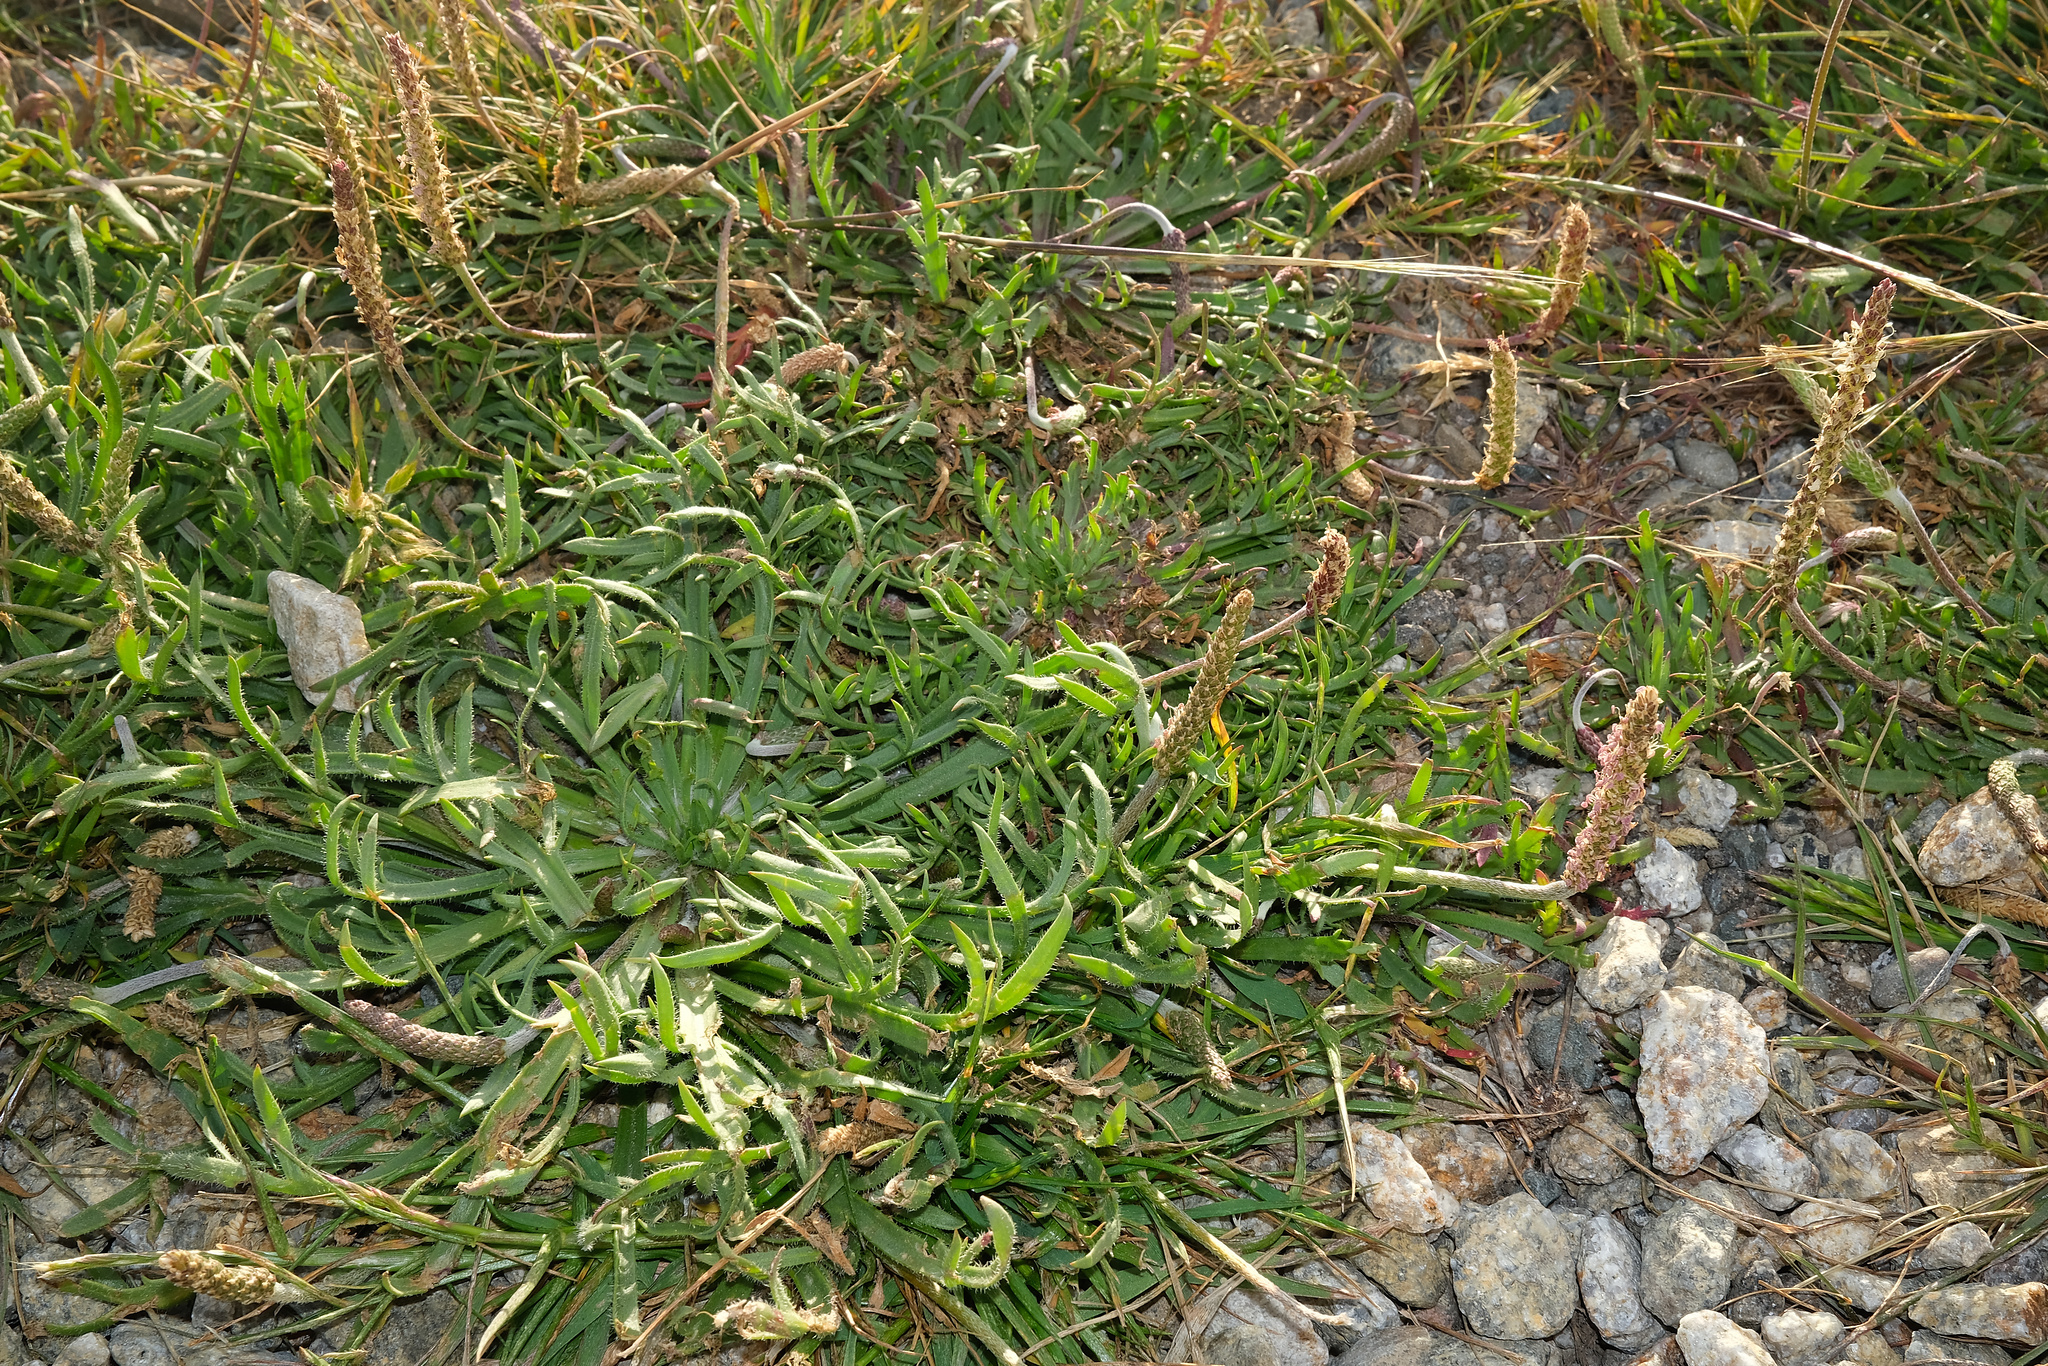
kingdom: Plantae
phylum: Tracheophyta
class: Magnoliopsida
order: Lamiales
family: Plantaginaceae
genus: Plantago
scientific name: Plantago coronopus
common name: Buck's-horn plantain
